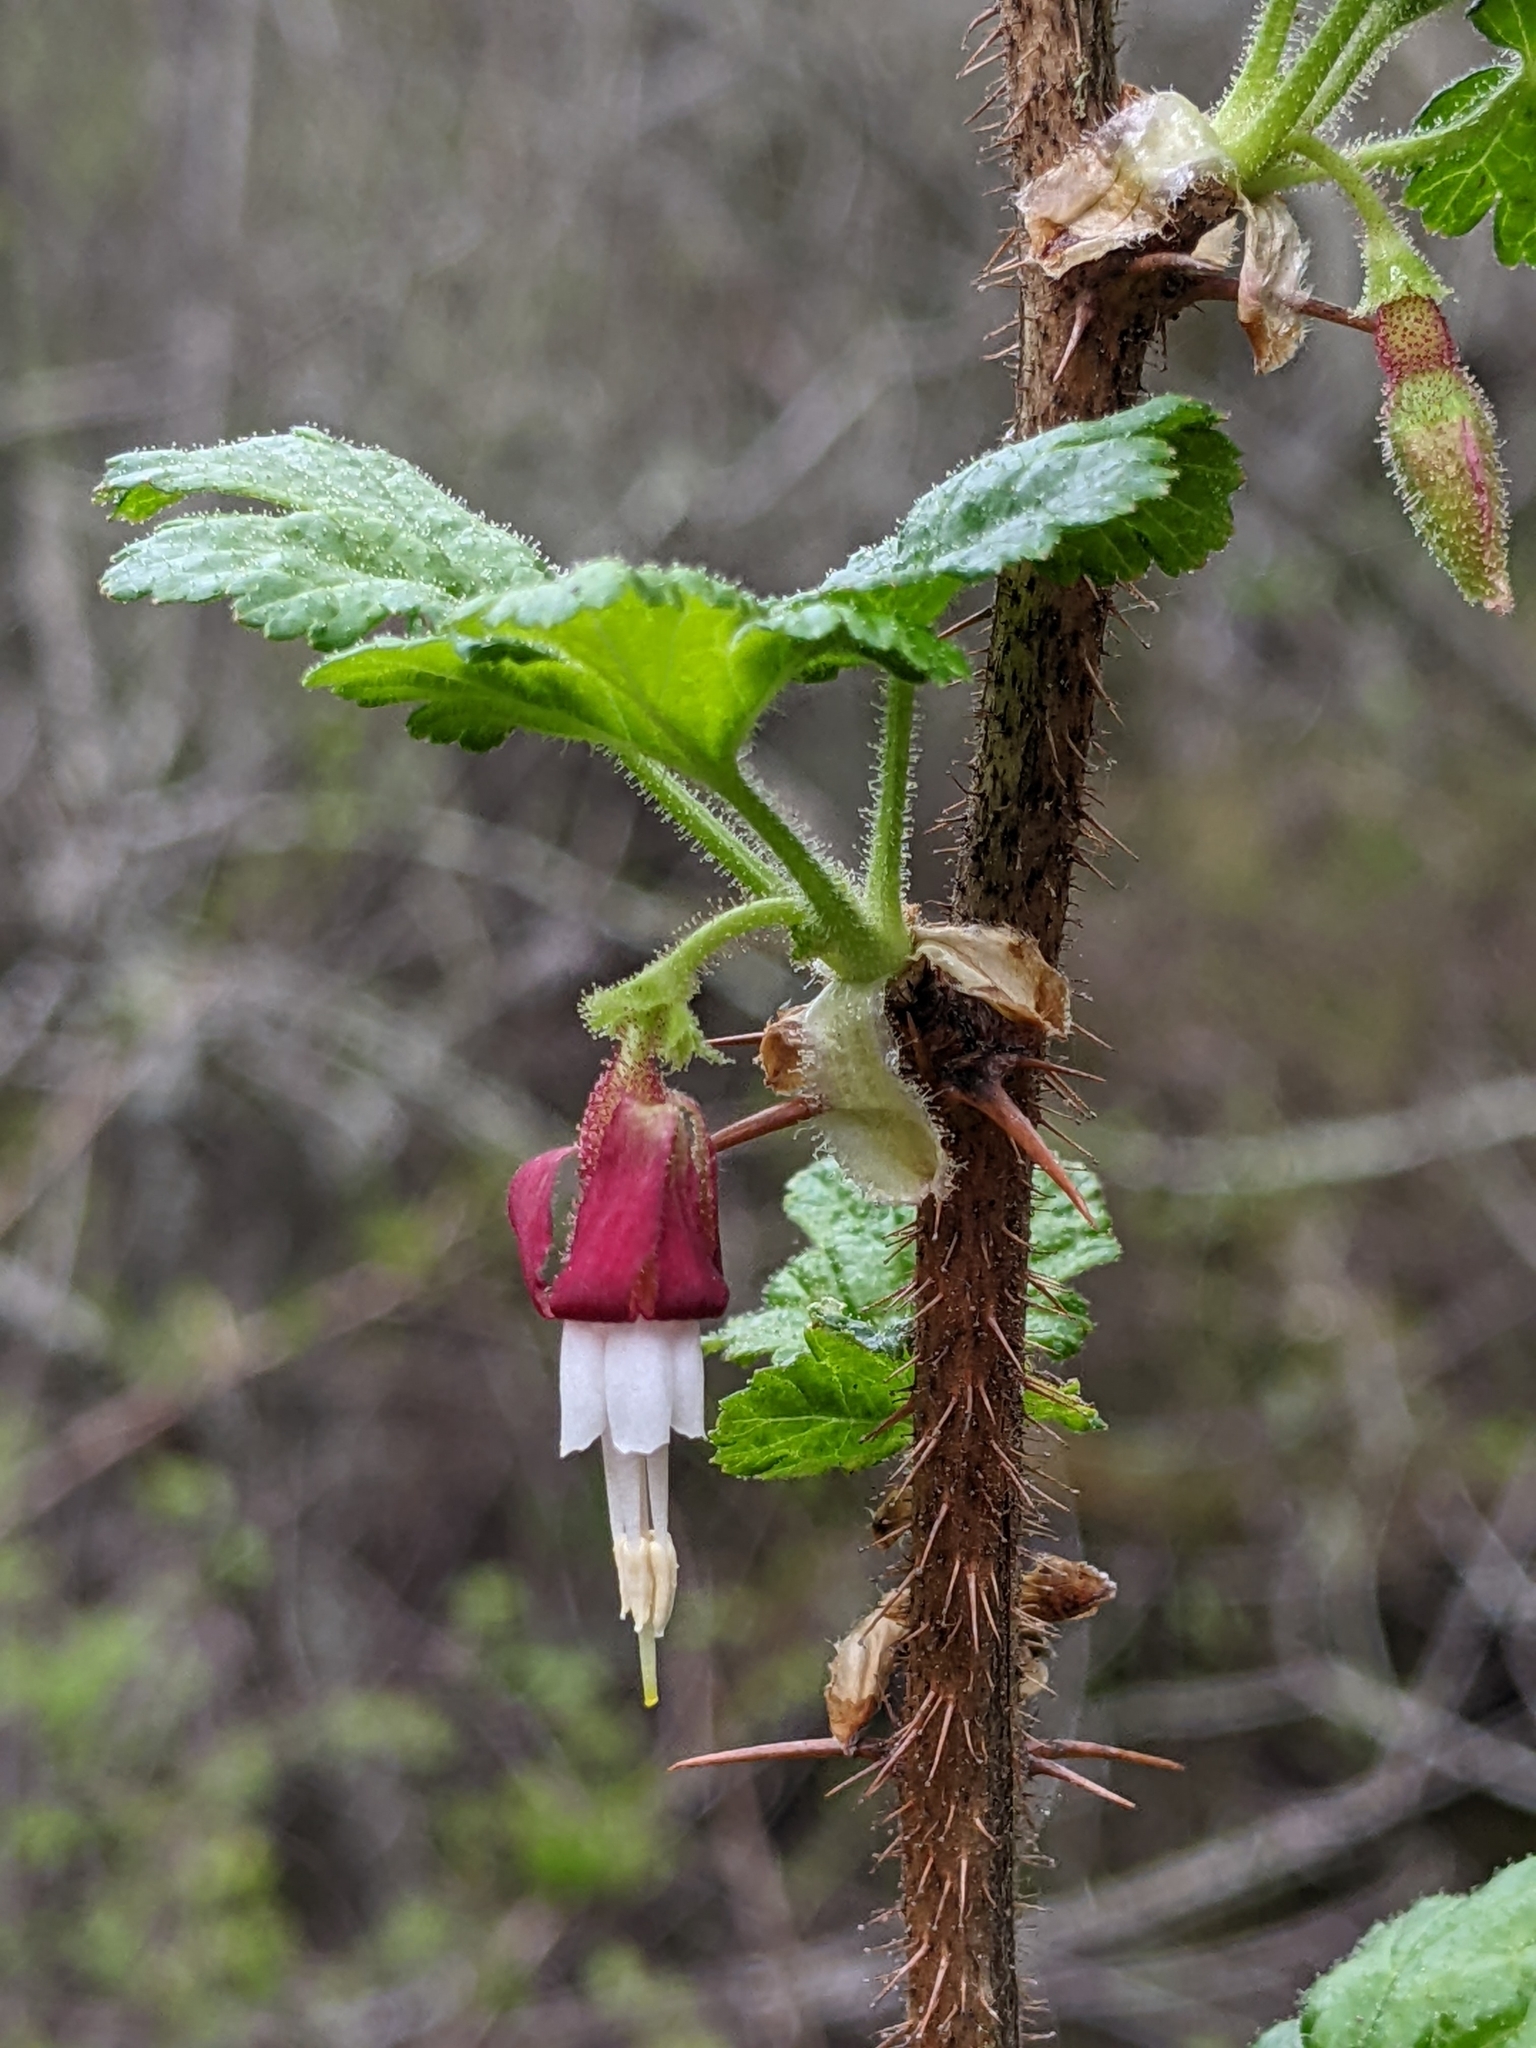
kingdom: Plantae
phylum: Tracheophyta
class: Magnoliopsida
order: Saxifragales
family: Grossulariaceae
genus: Ribes
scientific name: Ribes menziesii
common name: Canyon gooseberry
